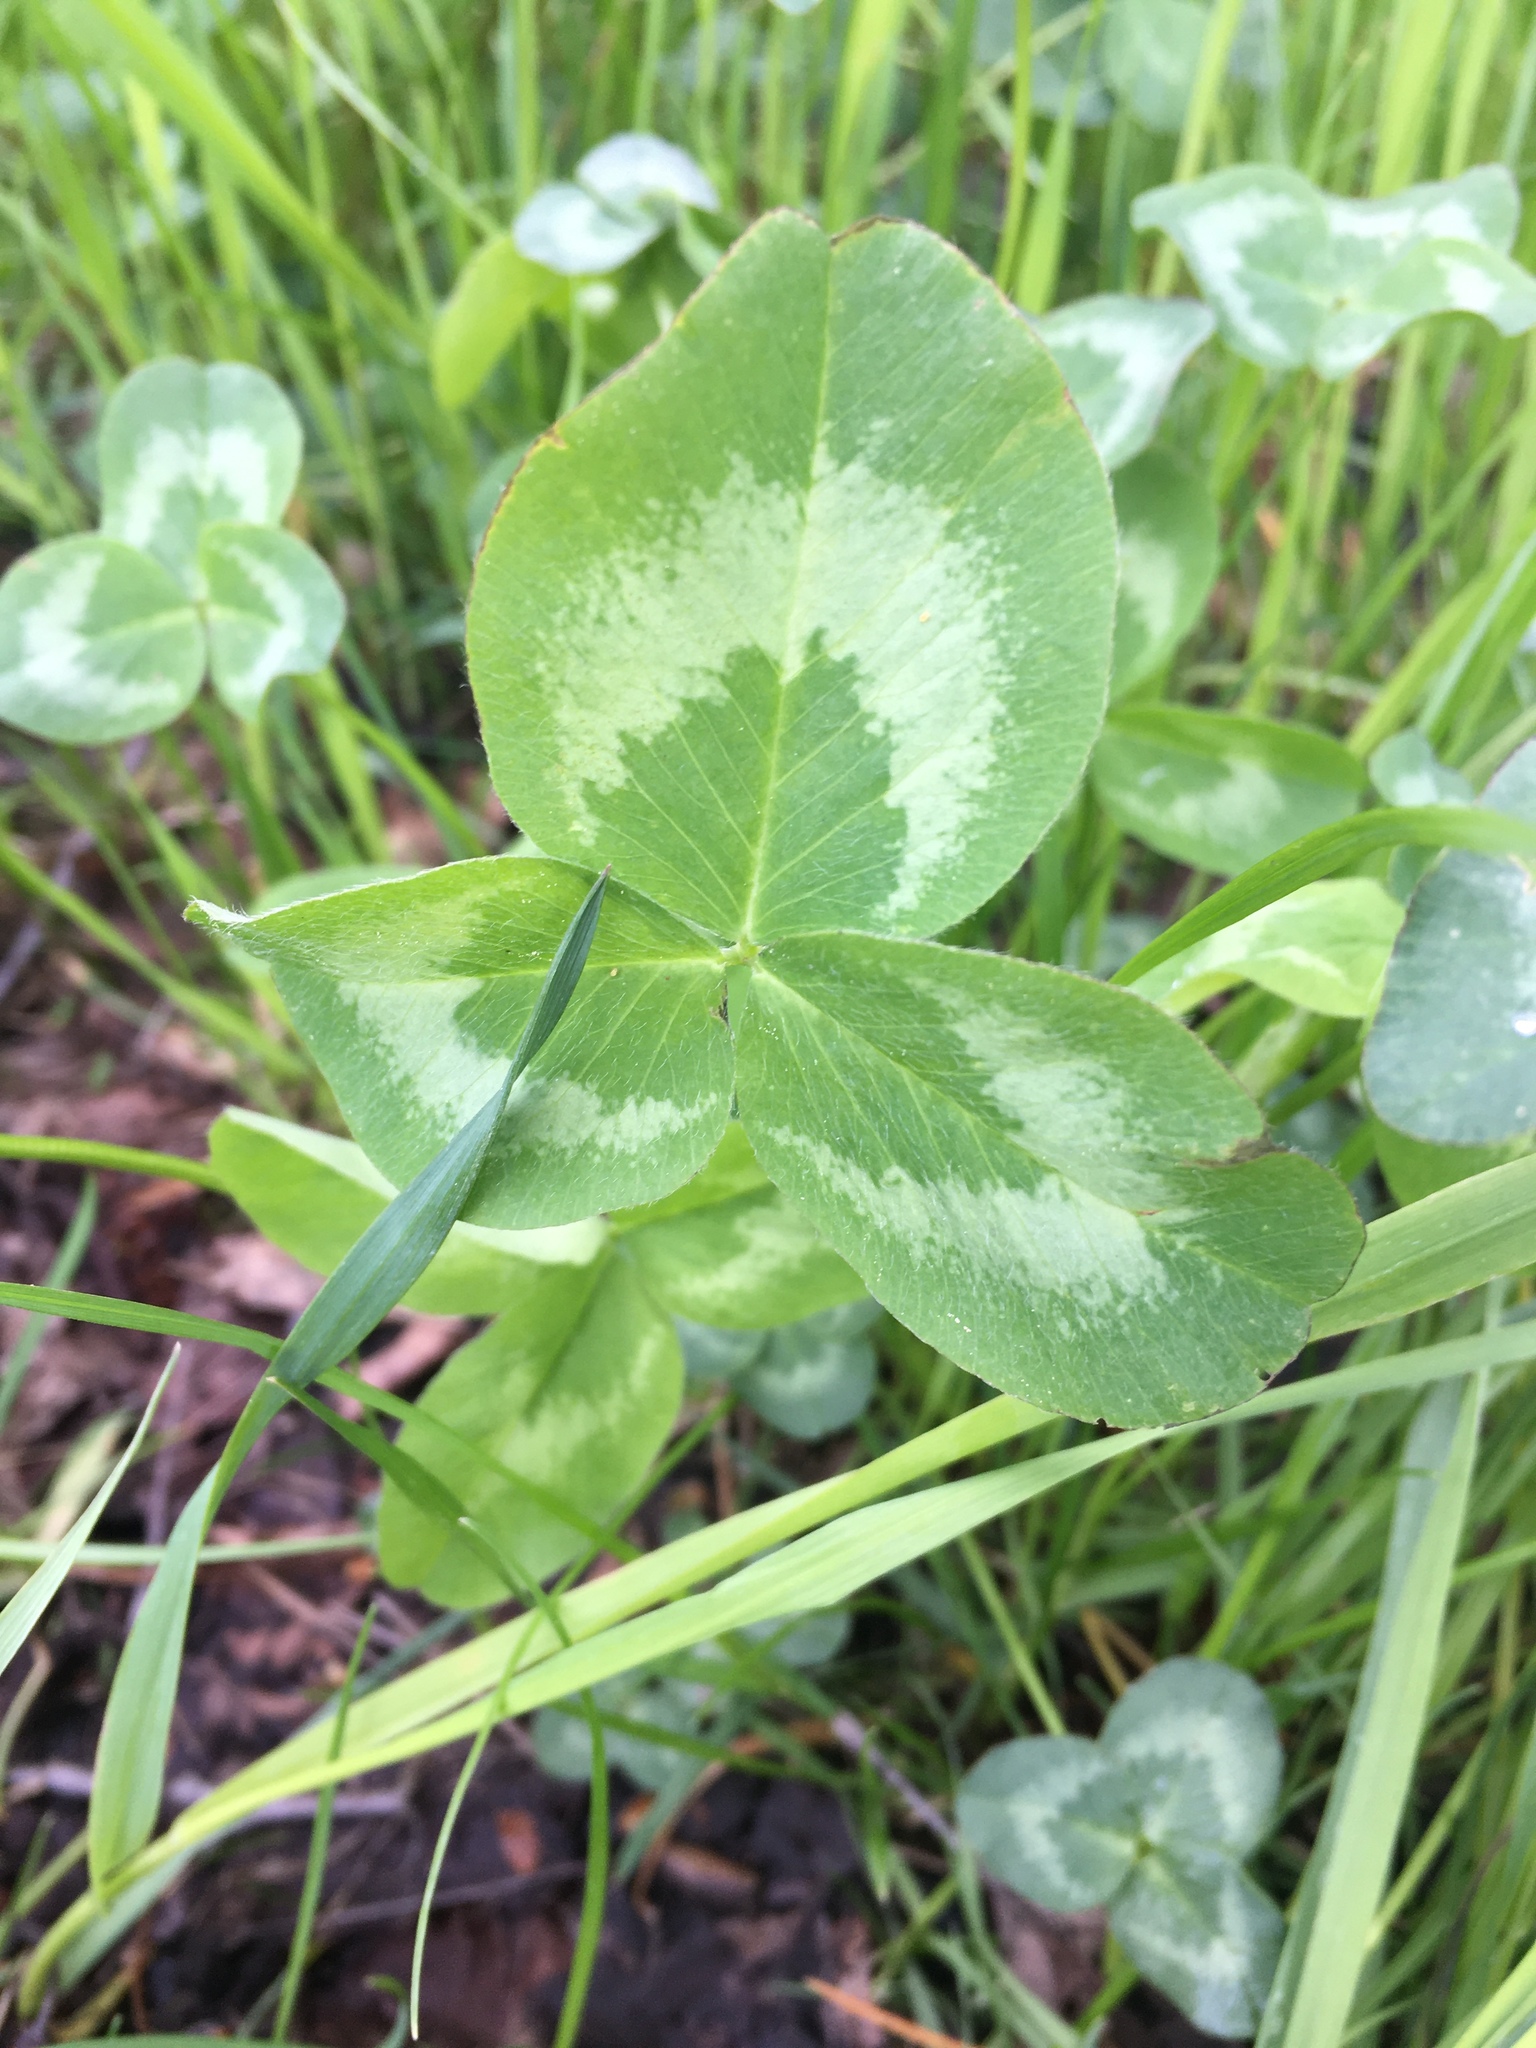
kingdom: Plantae
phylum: Tracheophyta
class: Magnoliopsida
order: Fabales
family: Fabaceae
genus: Trifolium
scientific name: Trifolium pratense
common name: Red clover
